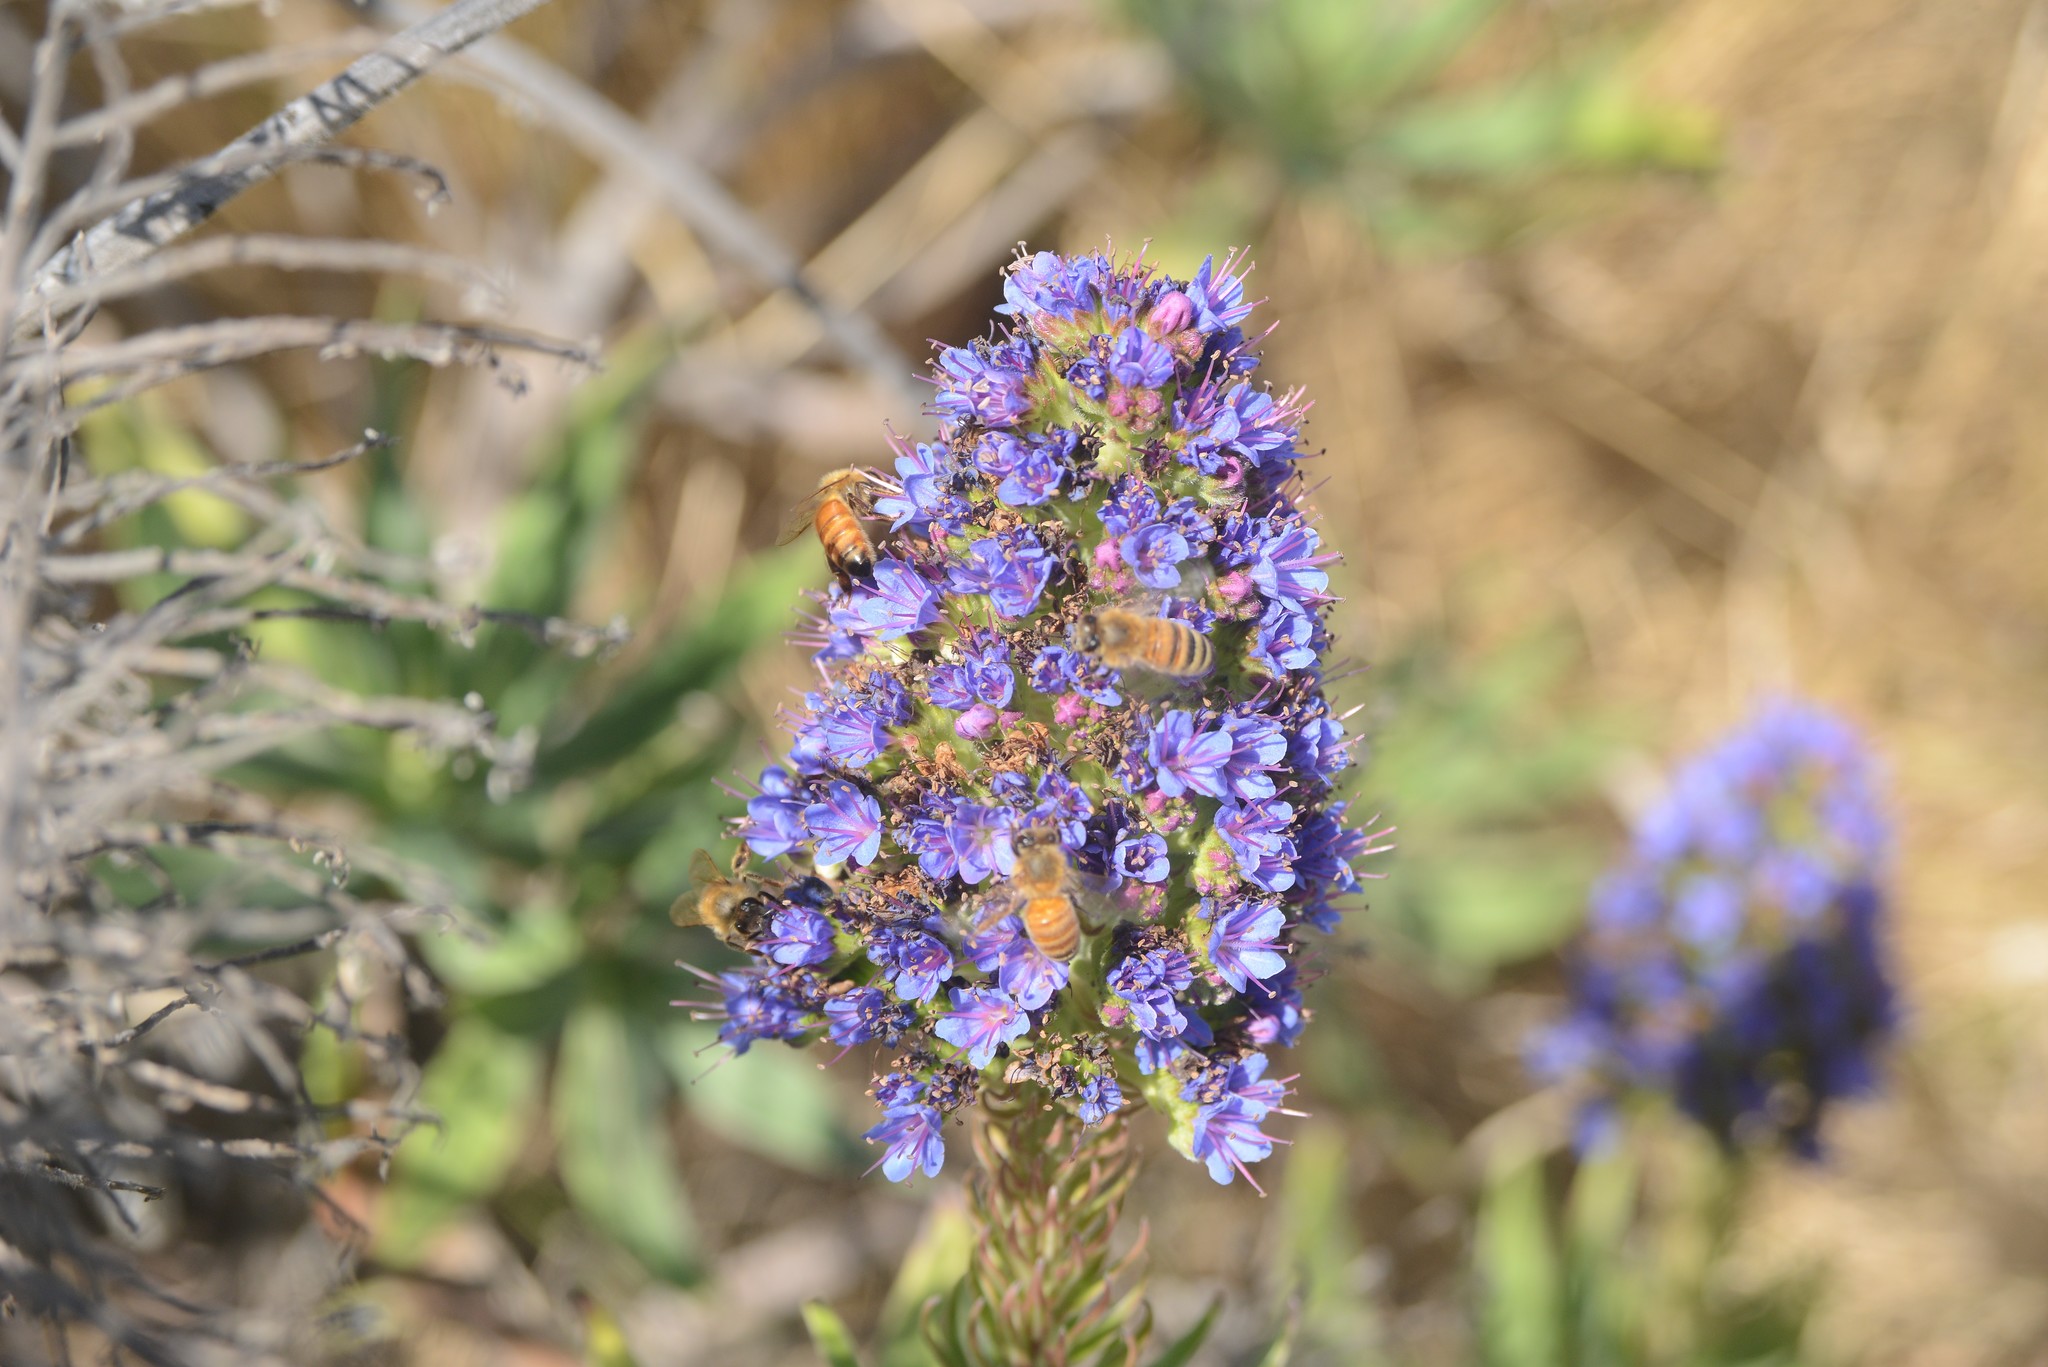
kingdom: Animalia
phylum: Arthropoda
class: Insecta
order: Hymenoptera
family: Apidae
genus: Apis
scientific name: Apis mellifera
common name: Honey bee
